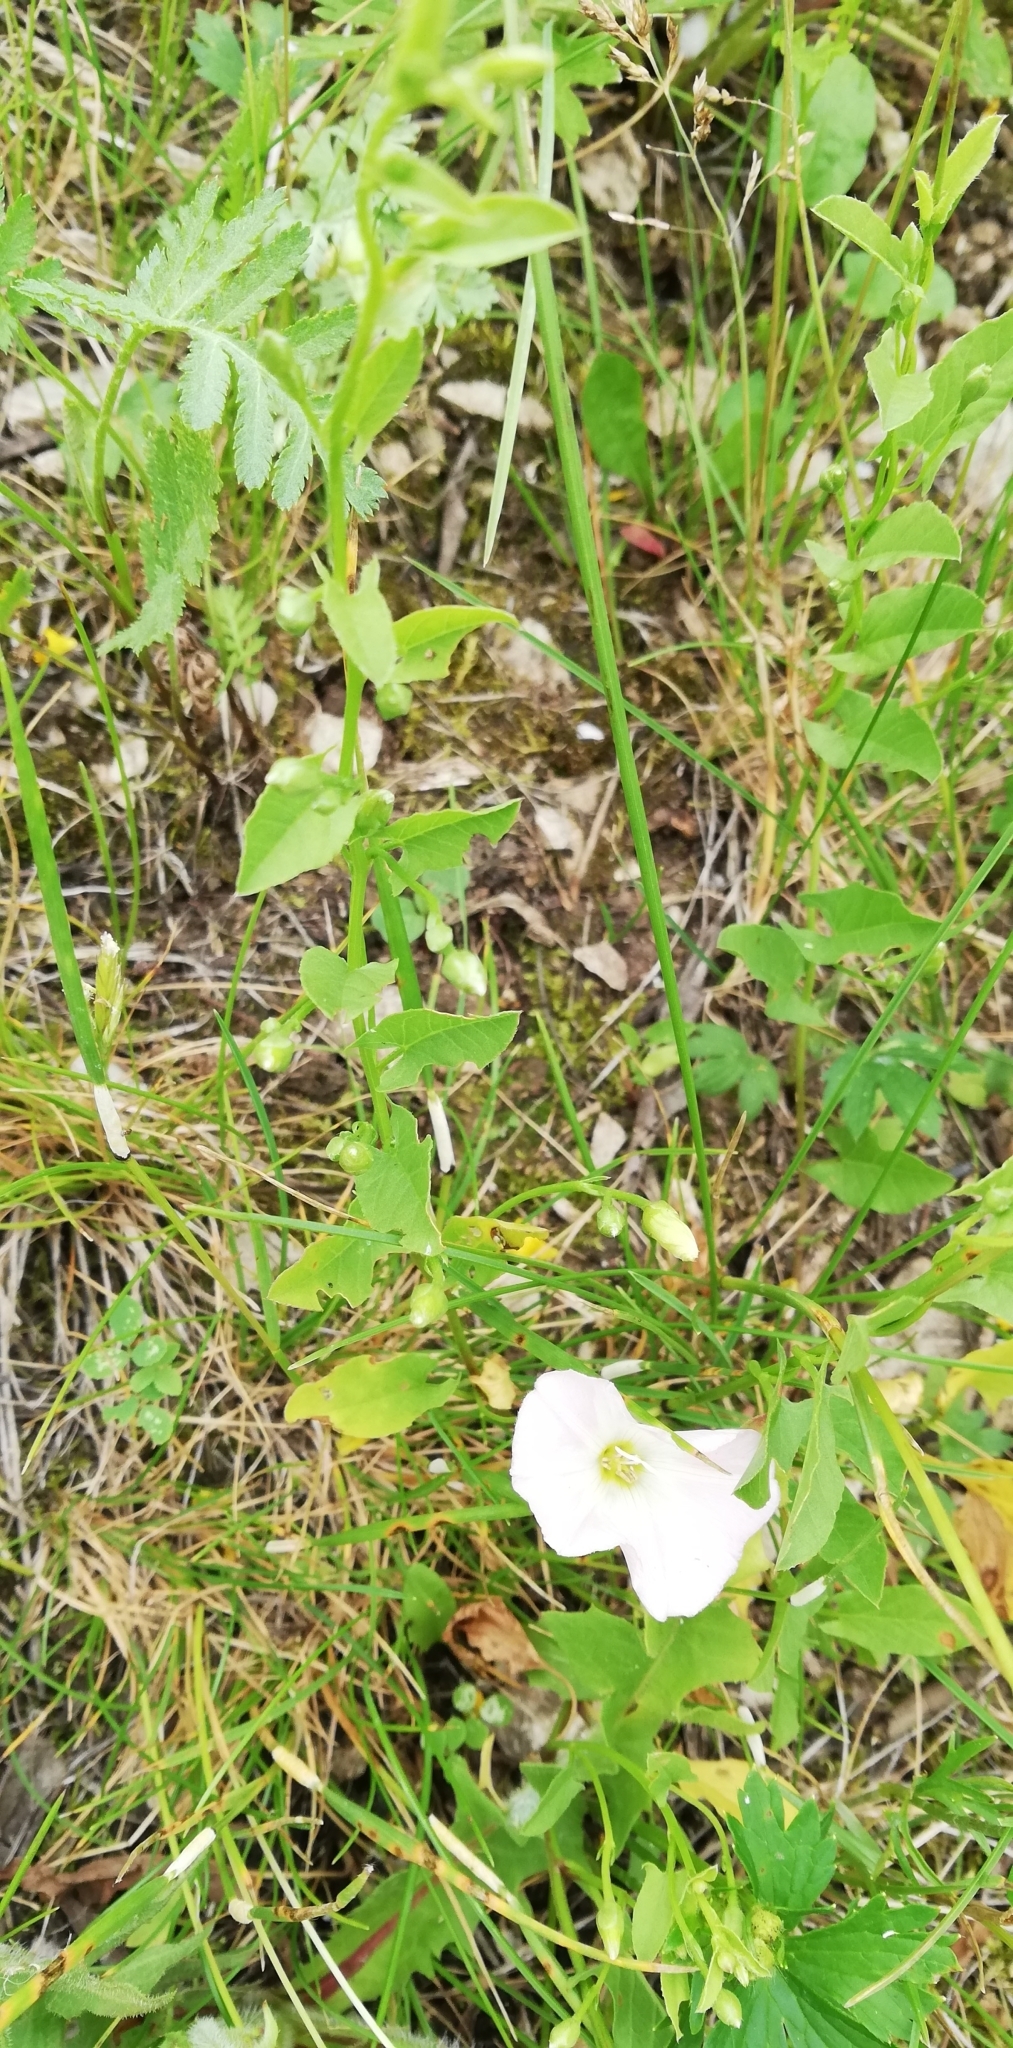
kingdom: Plantae
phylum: Tracheophyta
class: Magnoliopsida
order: Solanales
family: Convolvulaceae
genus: Convolvulus
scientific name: Convolvulus arvensis
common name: Field bindweed
